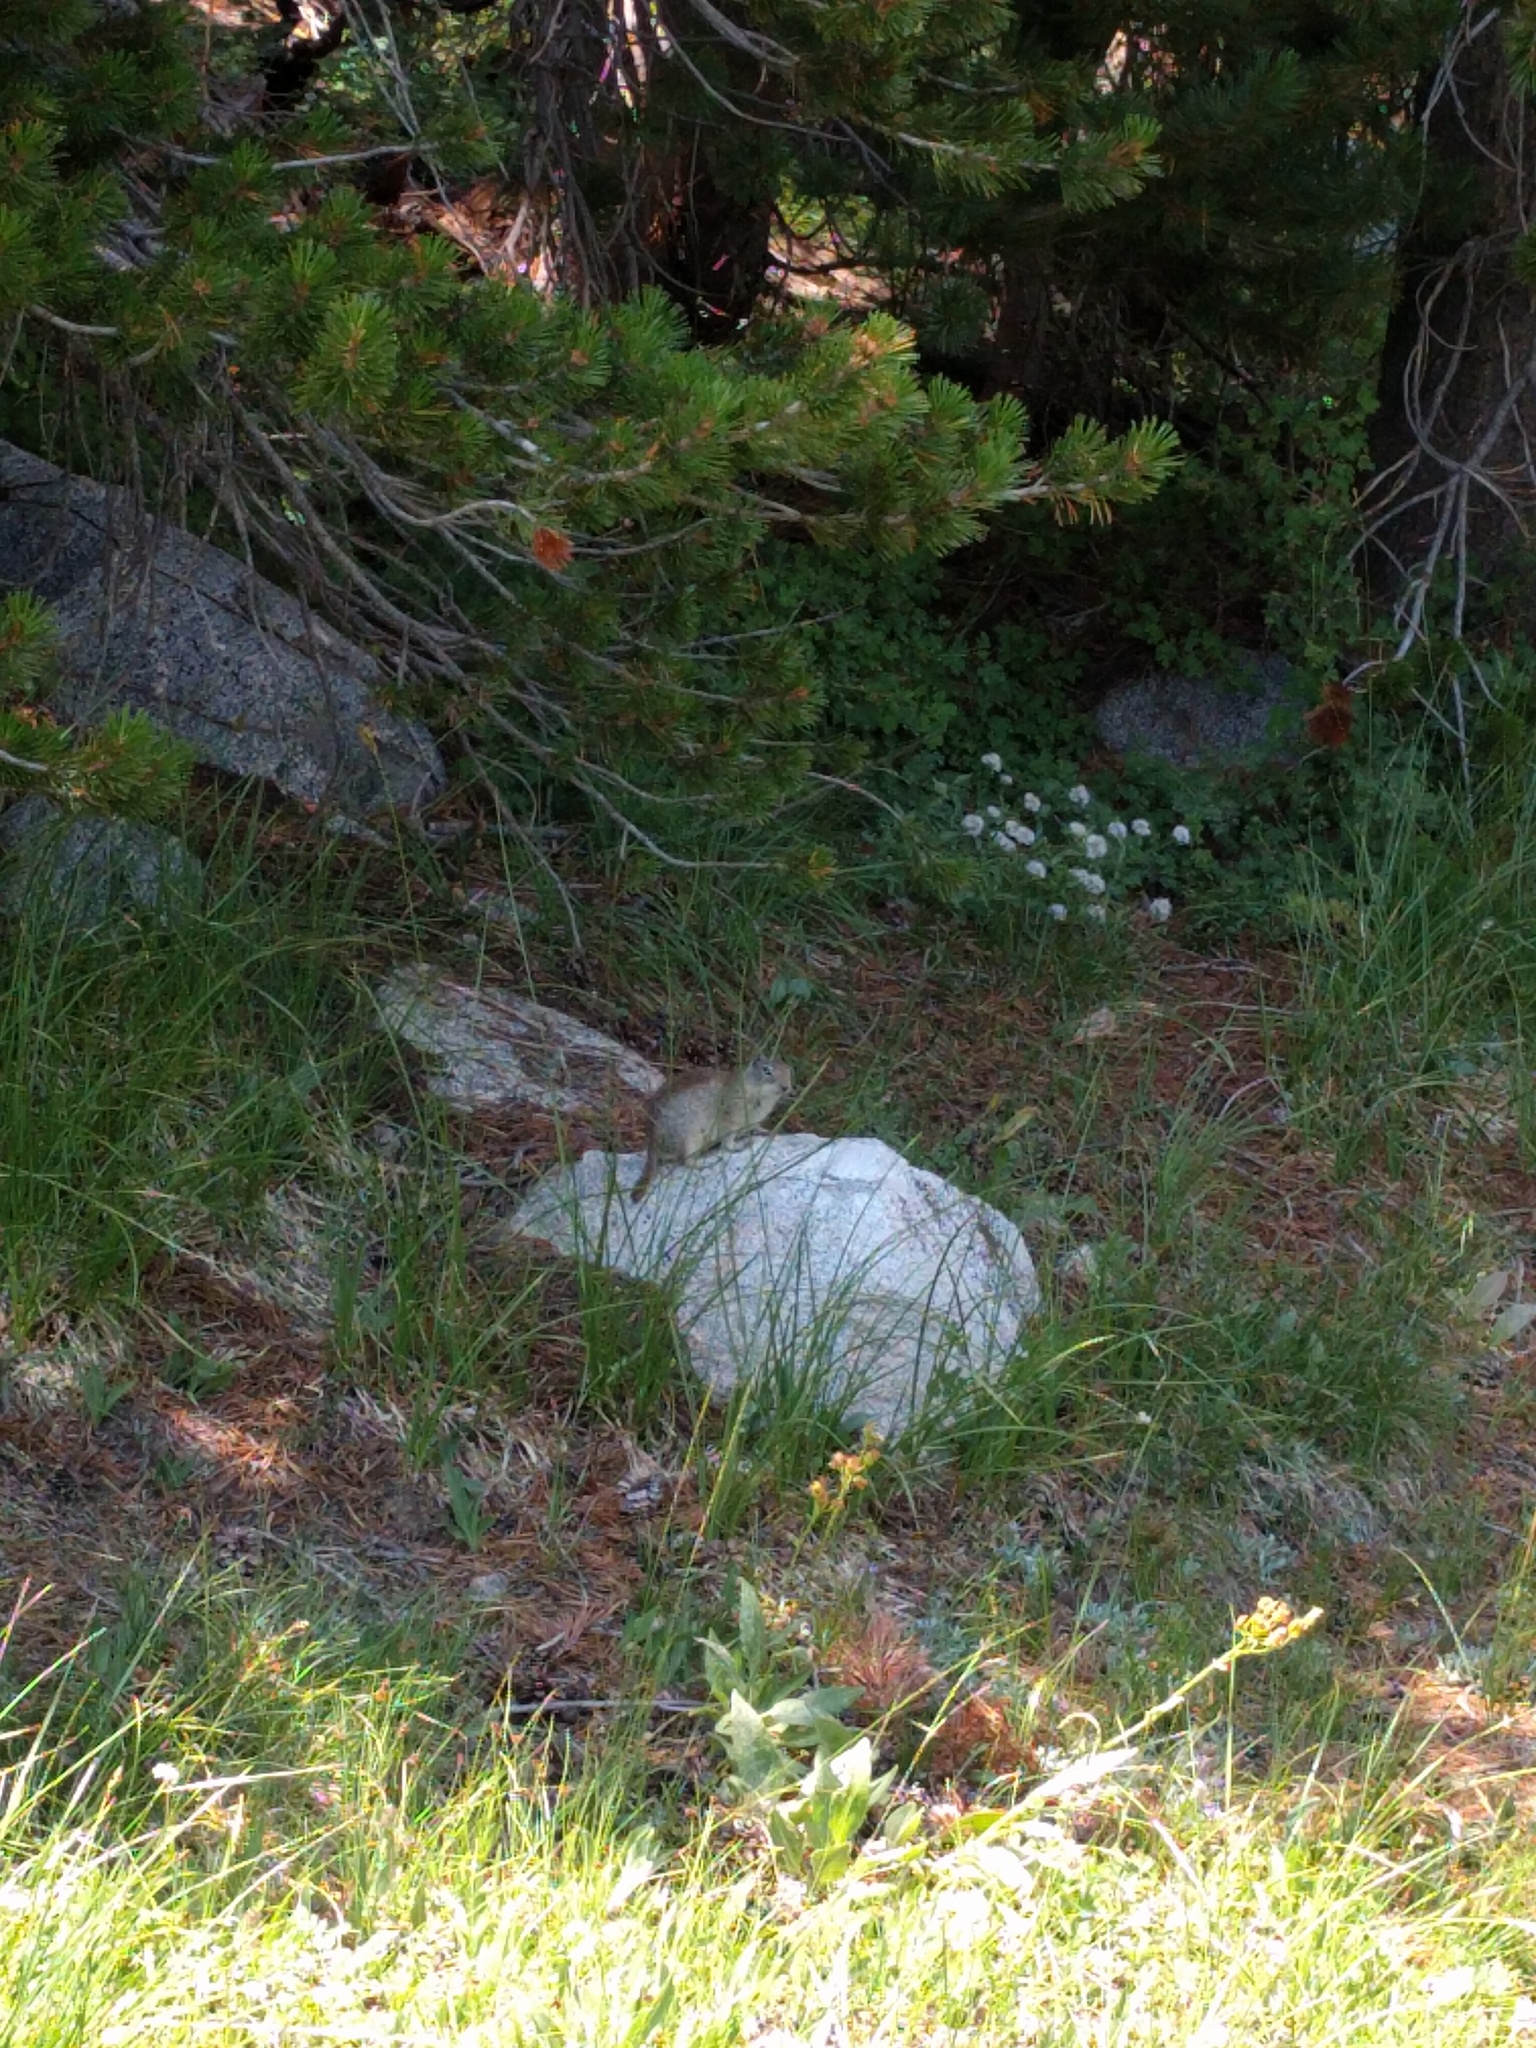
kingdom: Animalia
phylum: Chordata
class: Mammalia
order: Rodentia
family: Sciuridae
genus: Urocitellus
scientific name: Urocitellus beldingi
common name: Belding's ground squirrel
